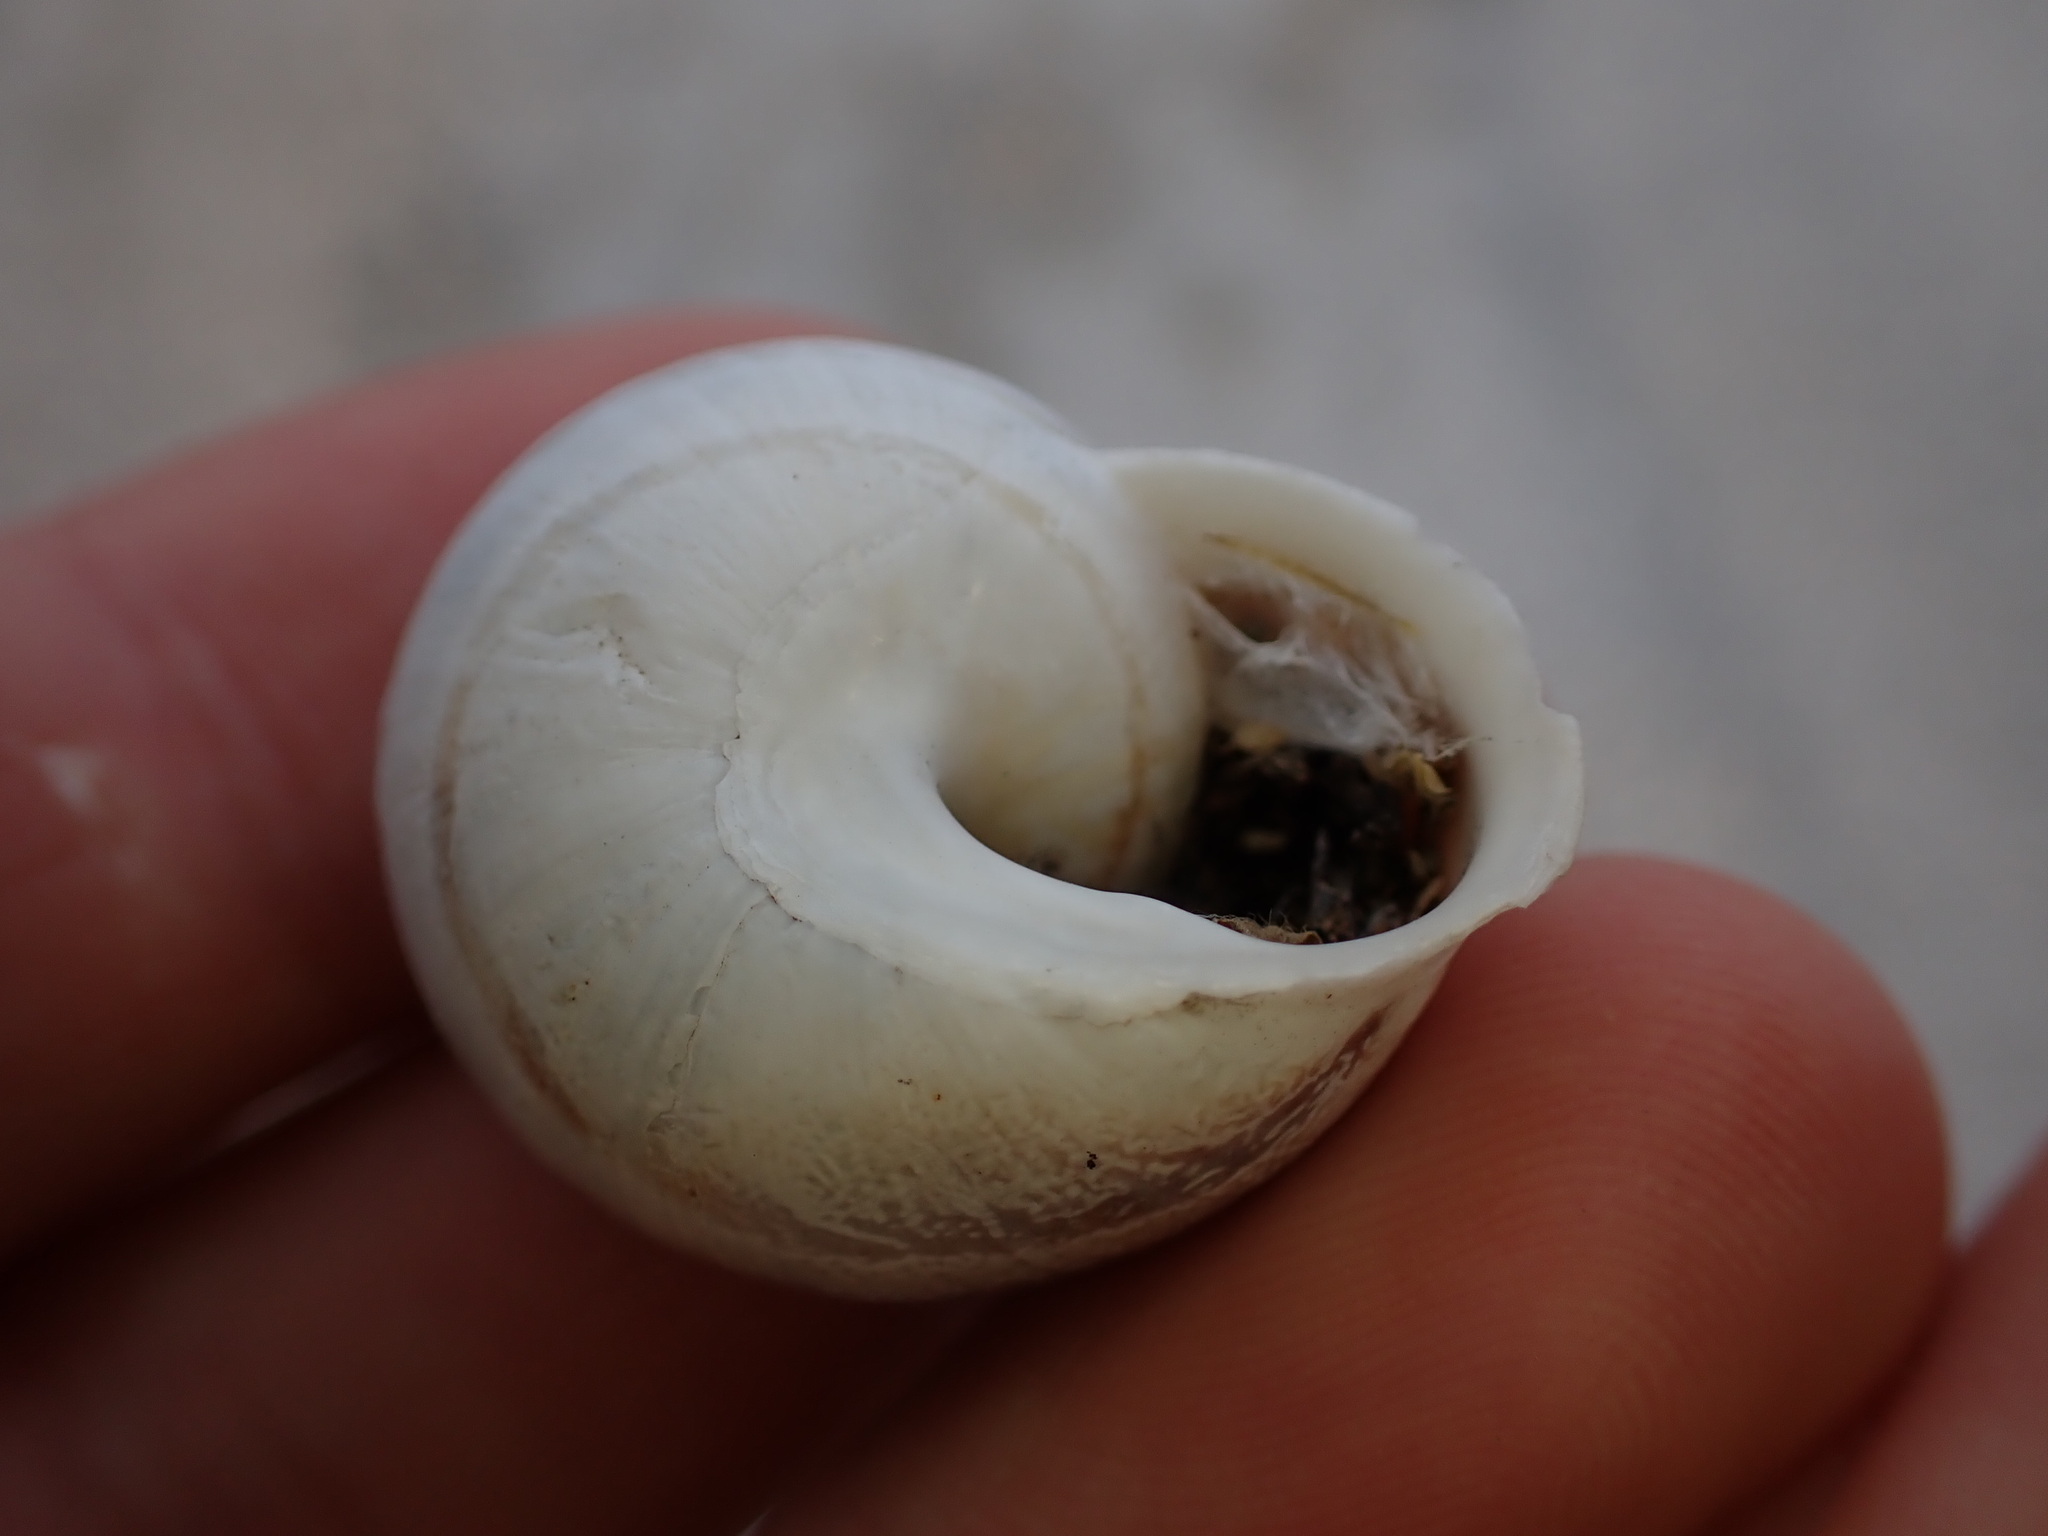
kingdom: Animalia
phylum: Mollusca
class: Gastropoda
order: Stylommatophora
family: Helicidae
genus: Eobania
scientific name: Eobania vermiculata
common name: Chocolateband snail
